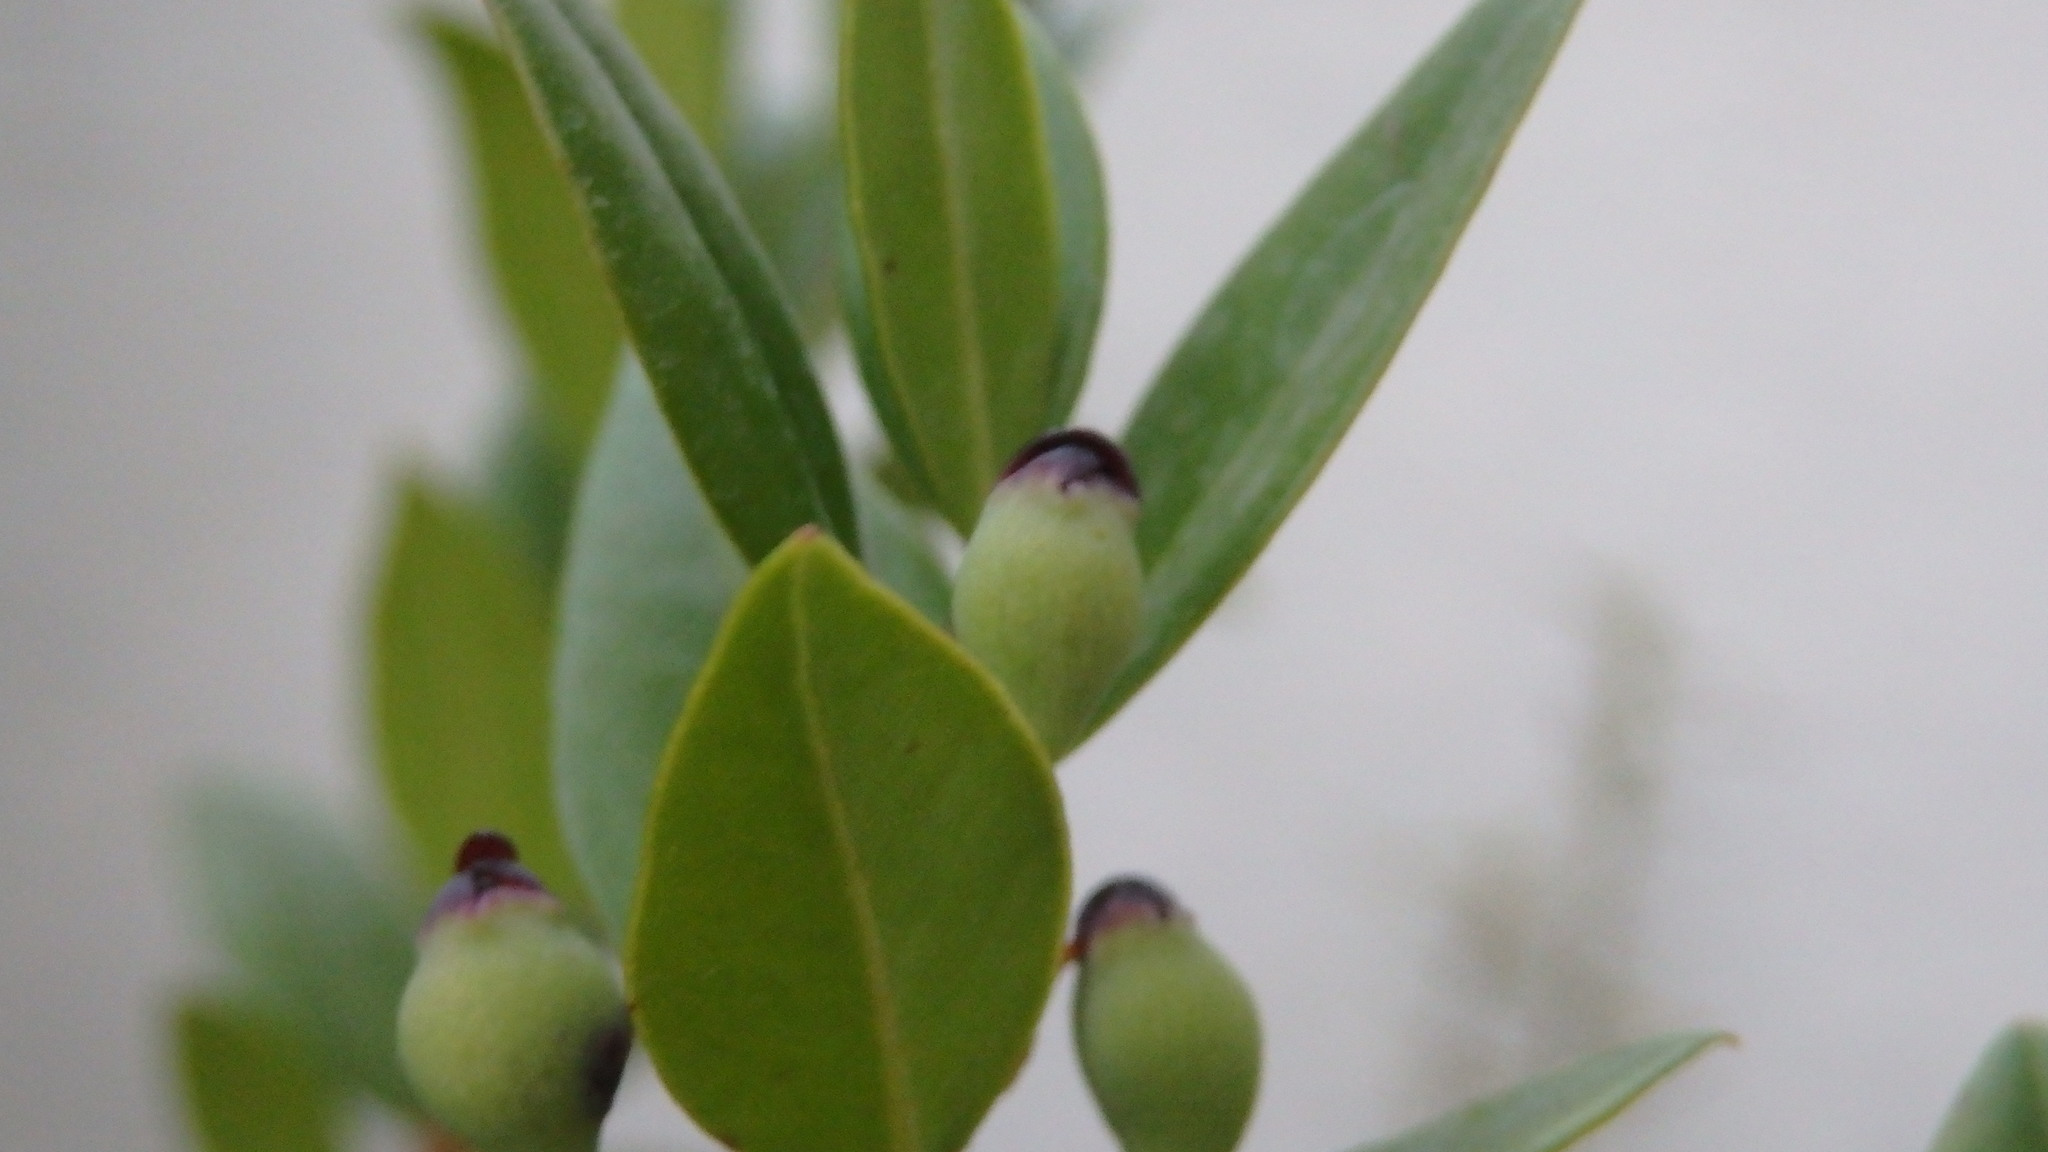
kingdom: Plantae
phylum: Tracheophyta
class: Magnoliopsida
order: Myrtales
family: Myrtaceae
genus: Myrtus
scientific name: Myrtus communis
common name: Myrtle
